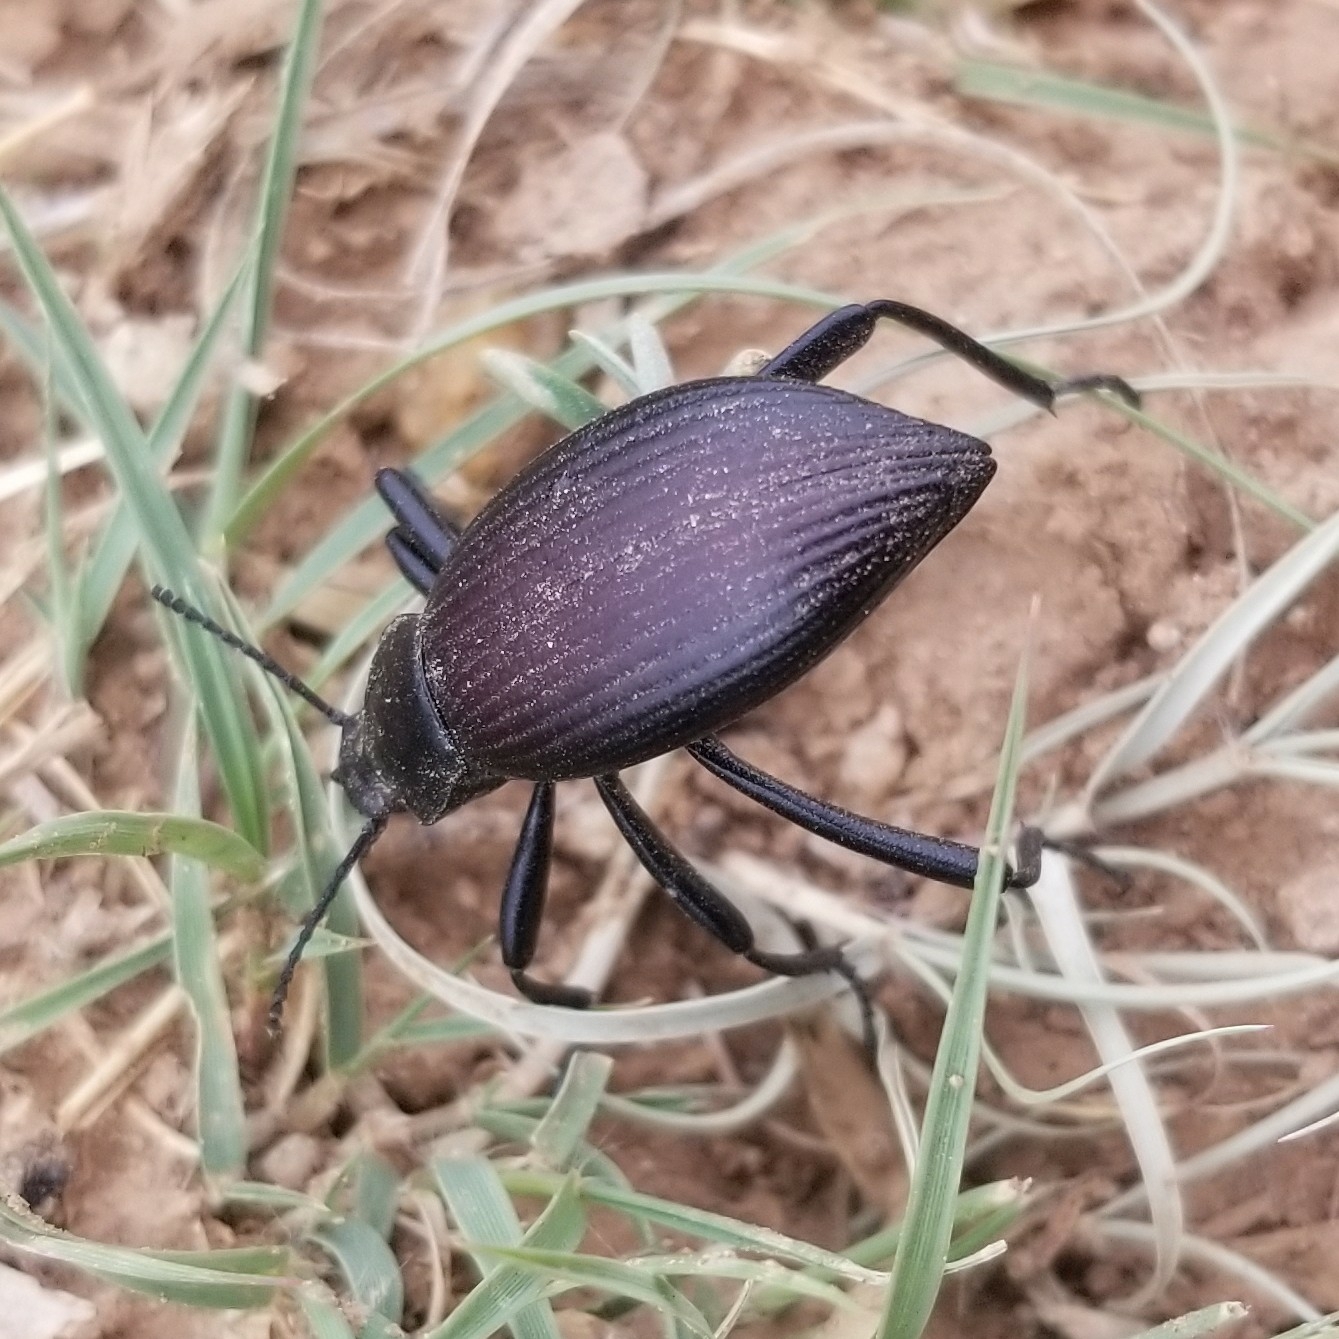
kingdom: Animalia
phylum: Arthropoda
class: Insecta
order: Coleoptera
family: Tenebrionidae
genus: Eleodes
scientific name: Eleodes hispilabris
